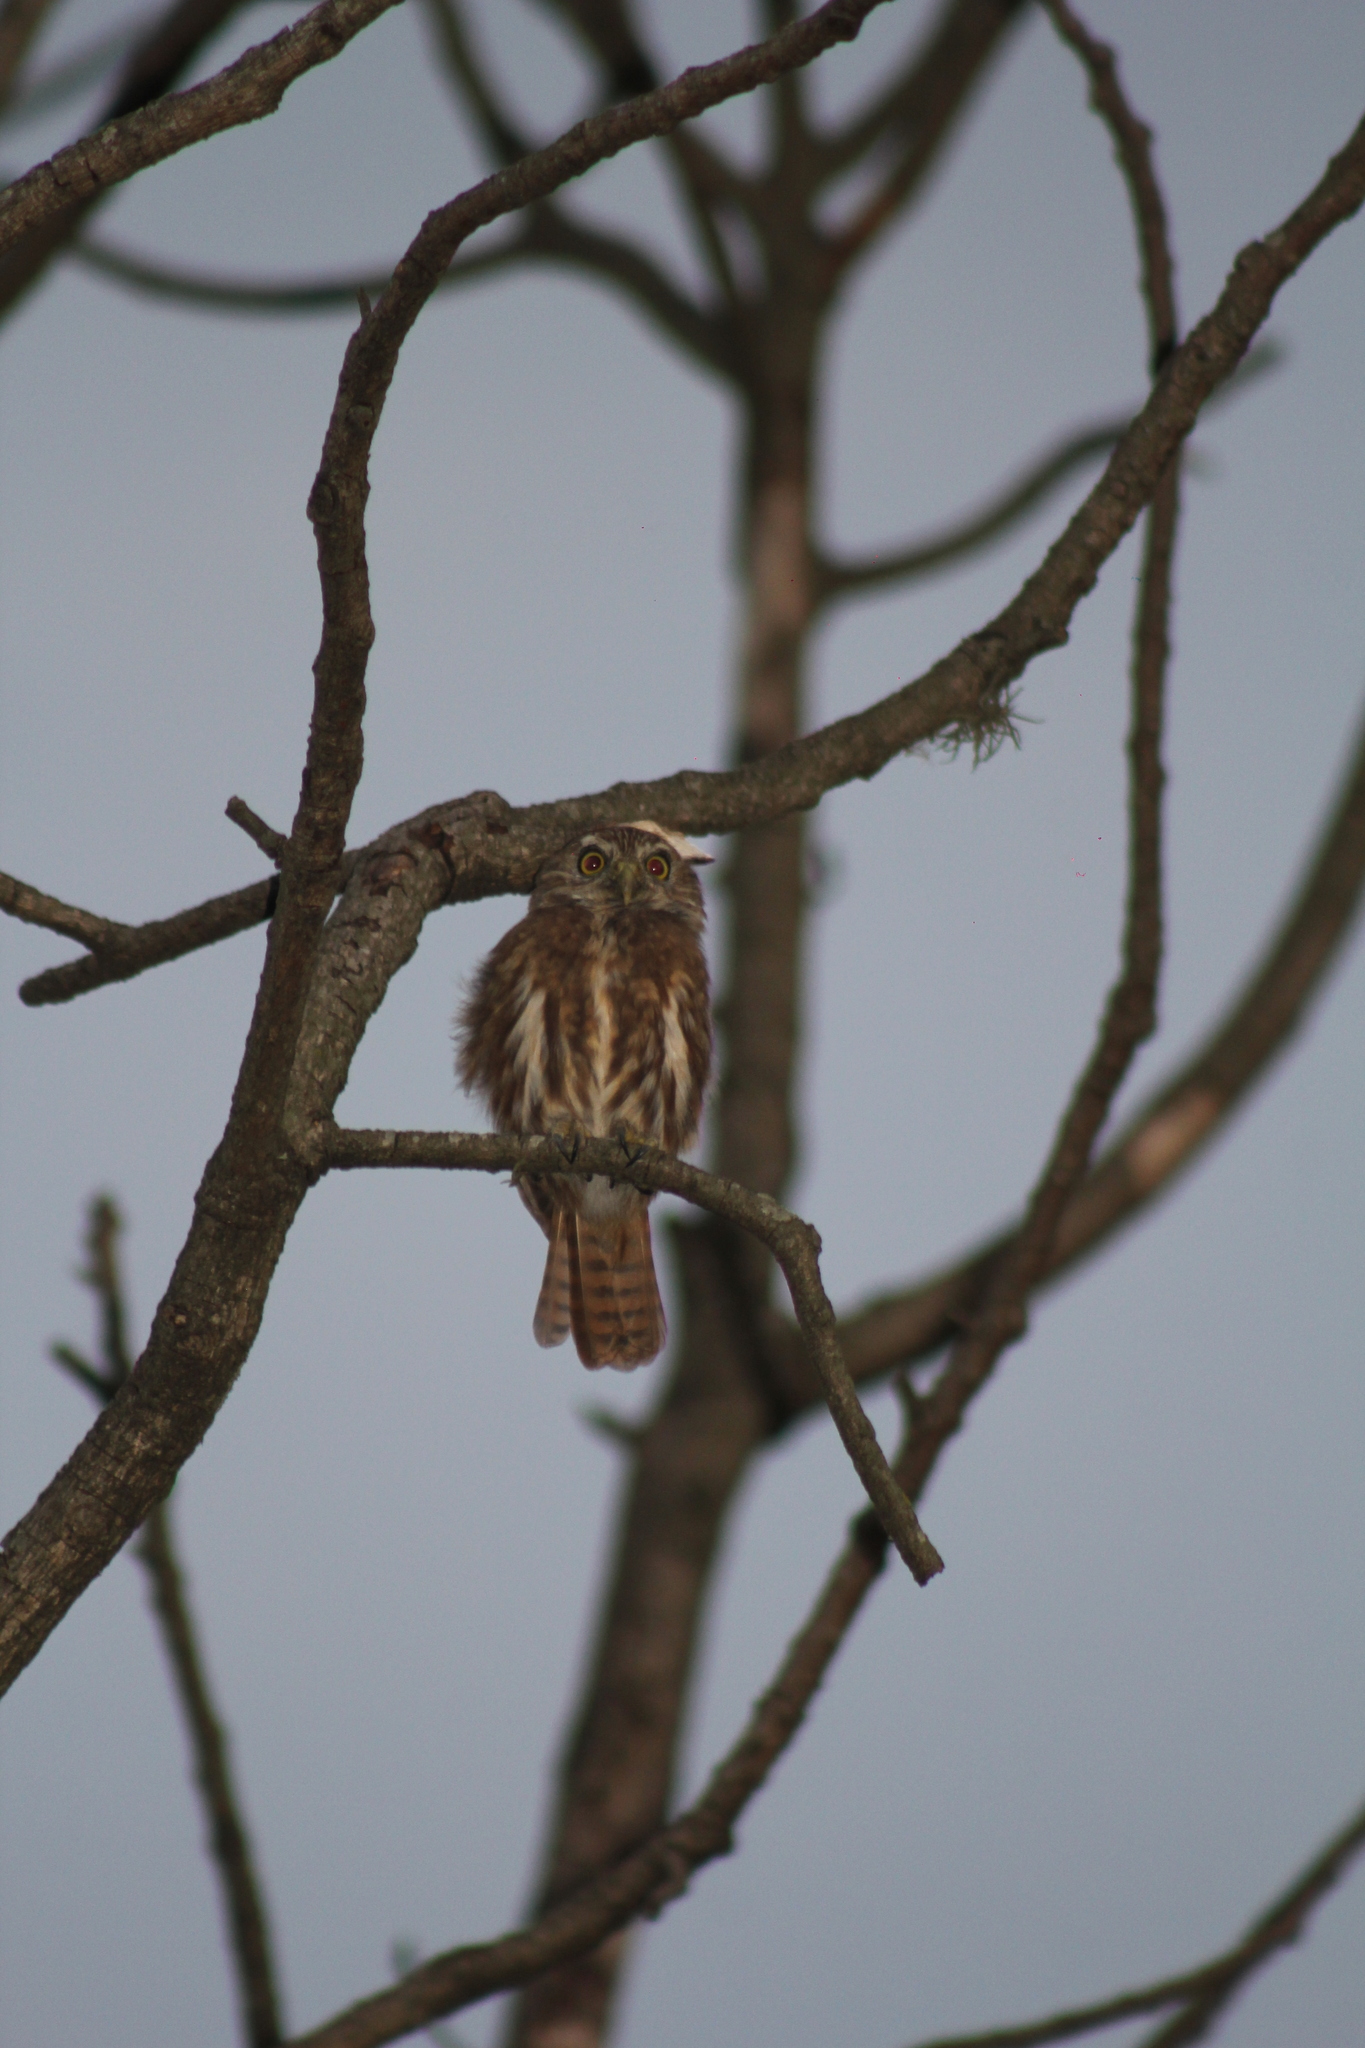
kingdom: Animalia
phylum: Chordata
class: Aves
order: Strigiformes
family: Strigidae
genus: Glaucidium
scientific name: Glaucidium brasilianum
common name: Ferruginous pygmy-owl
